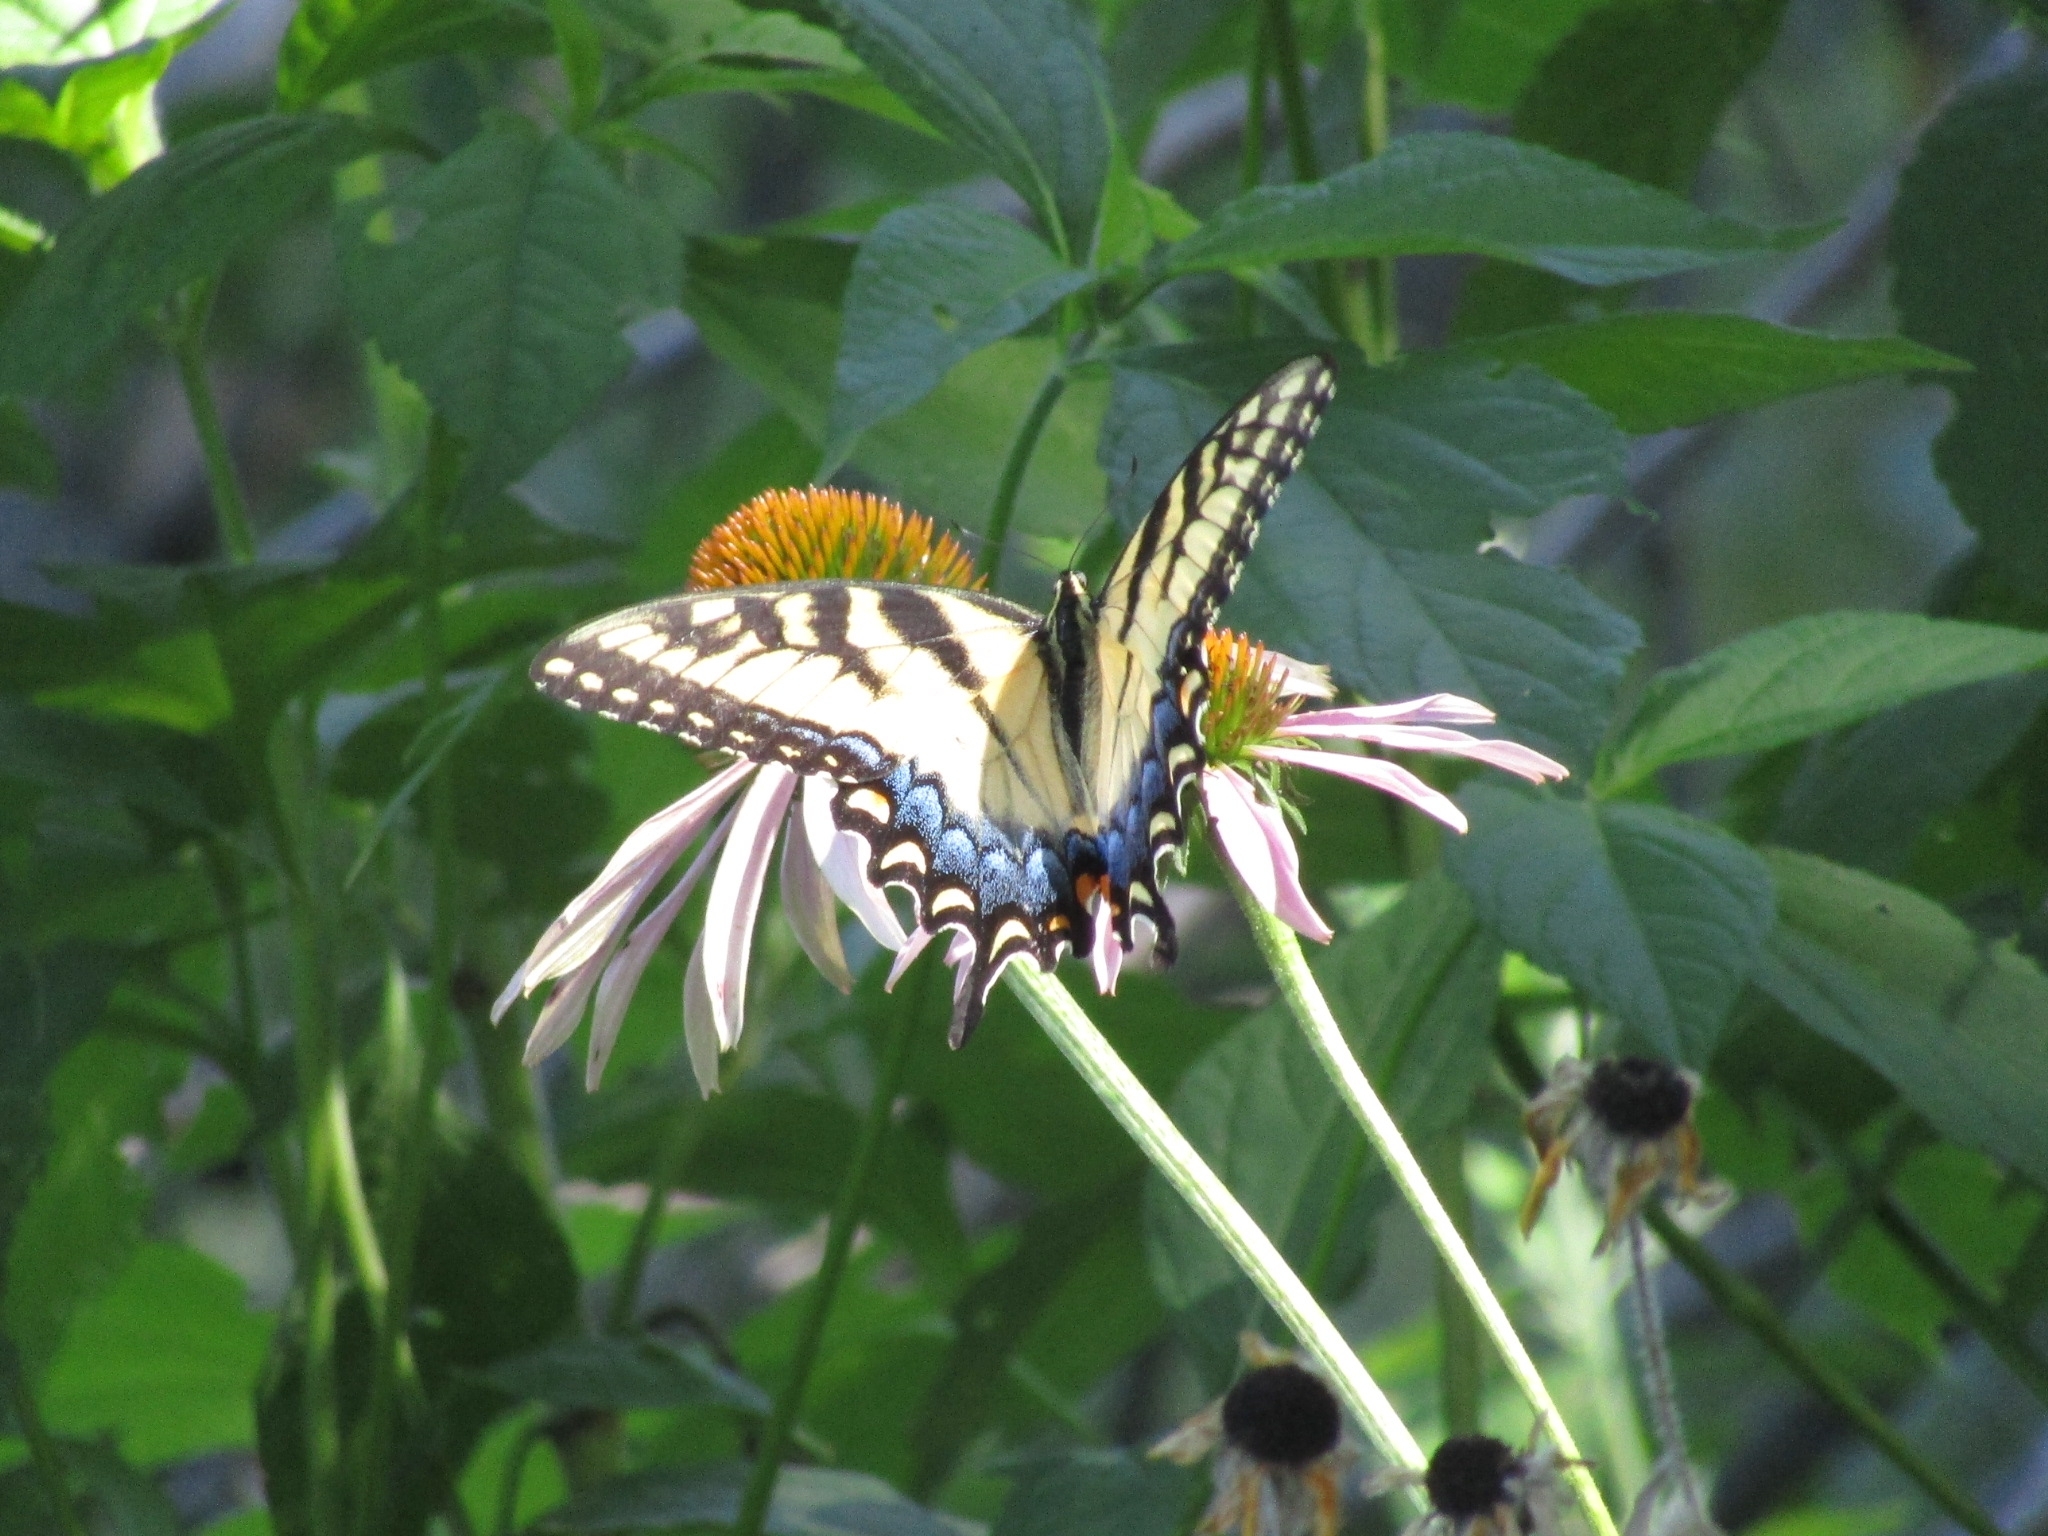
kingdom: Animalia
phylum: Arthropoda
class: Insecta
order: Lepidoptera
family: Papilionidae
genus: Papilio
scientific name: Papilio glaucus
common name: Tiger swallowtail
